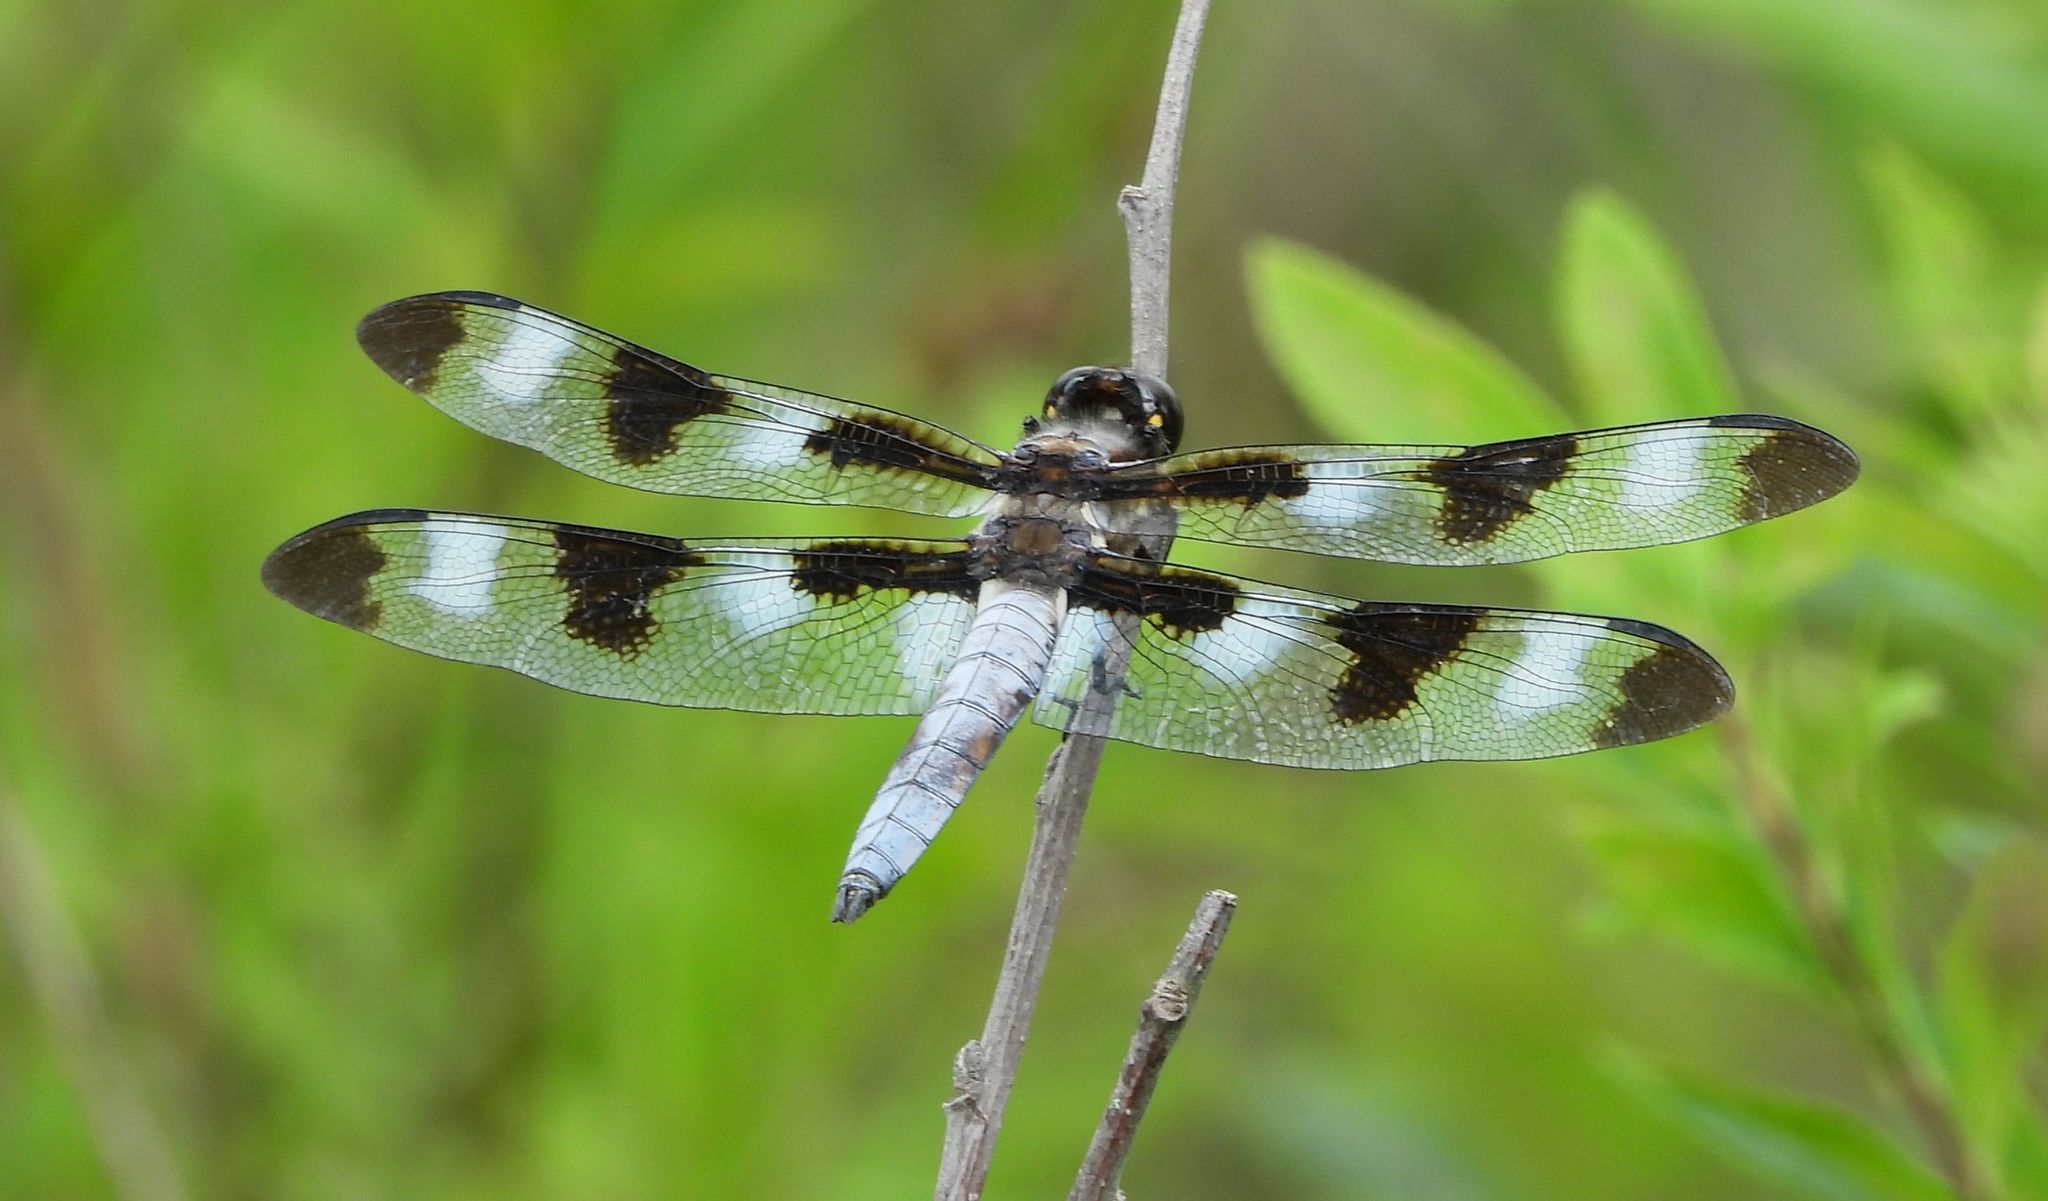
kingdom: Animalia
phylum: Arthropoda
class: Insecta
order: Odonata
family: Libellulidae
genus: Libellula
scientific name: Libellula pulchella
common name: Twelve-spotted skimmer
